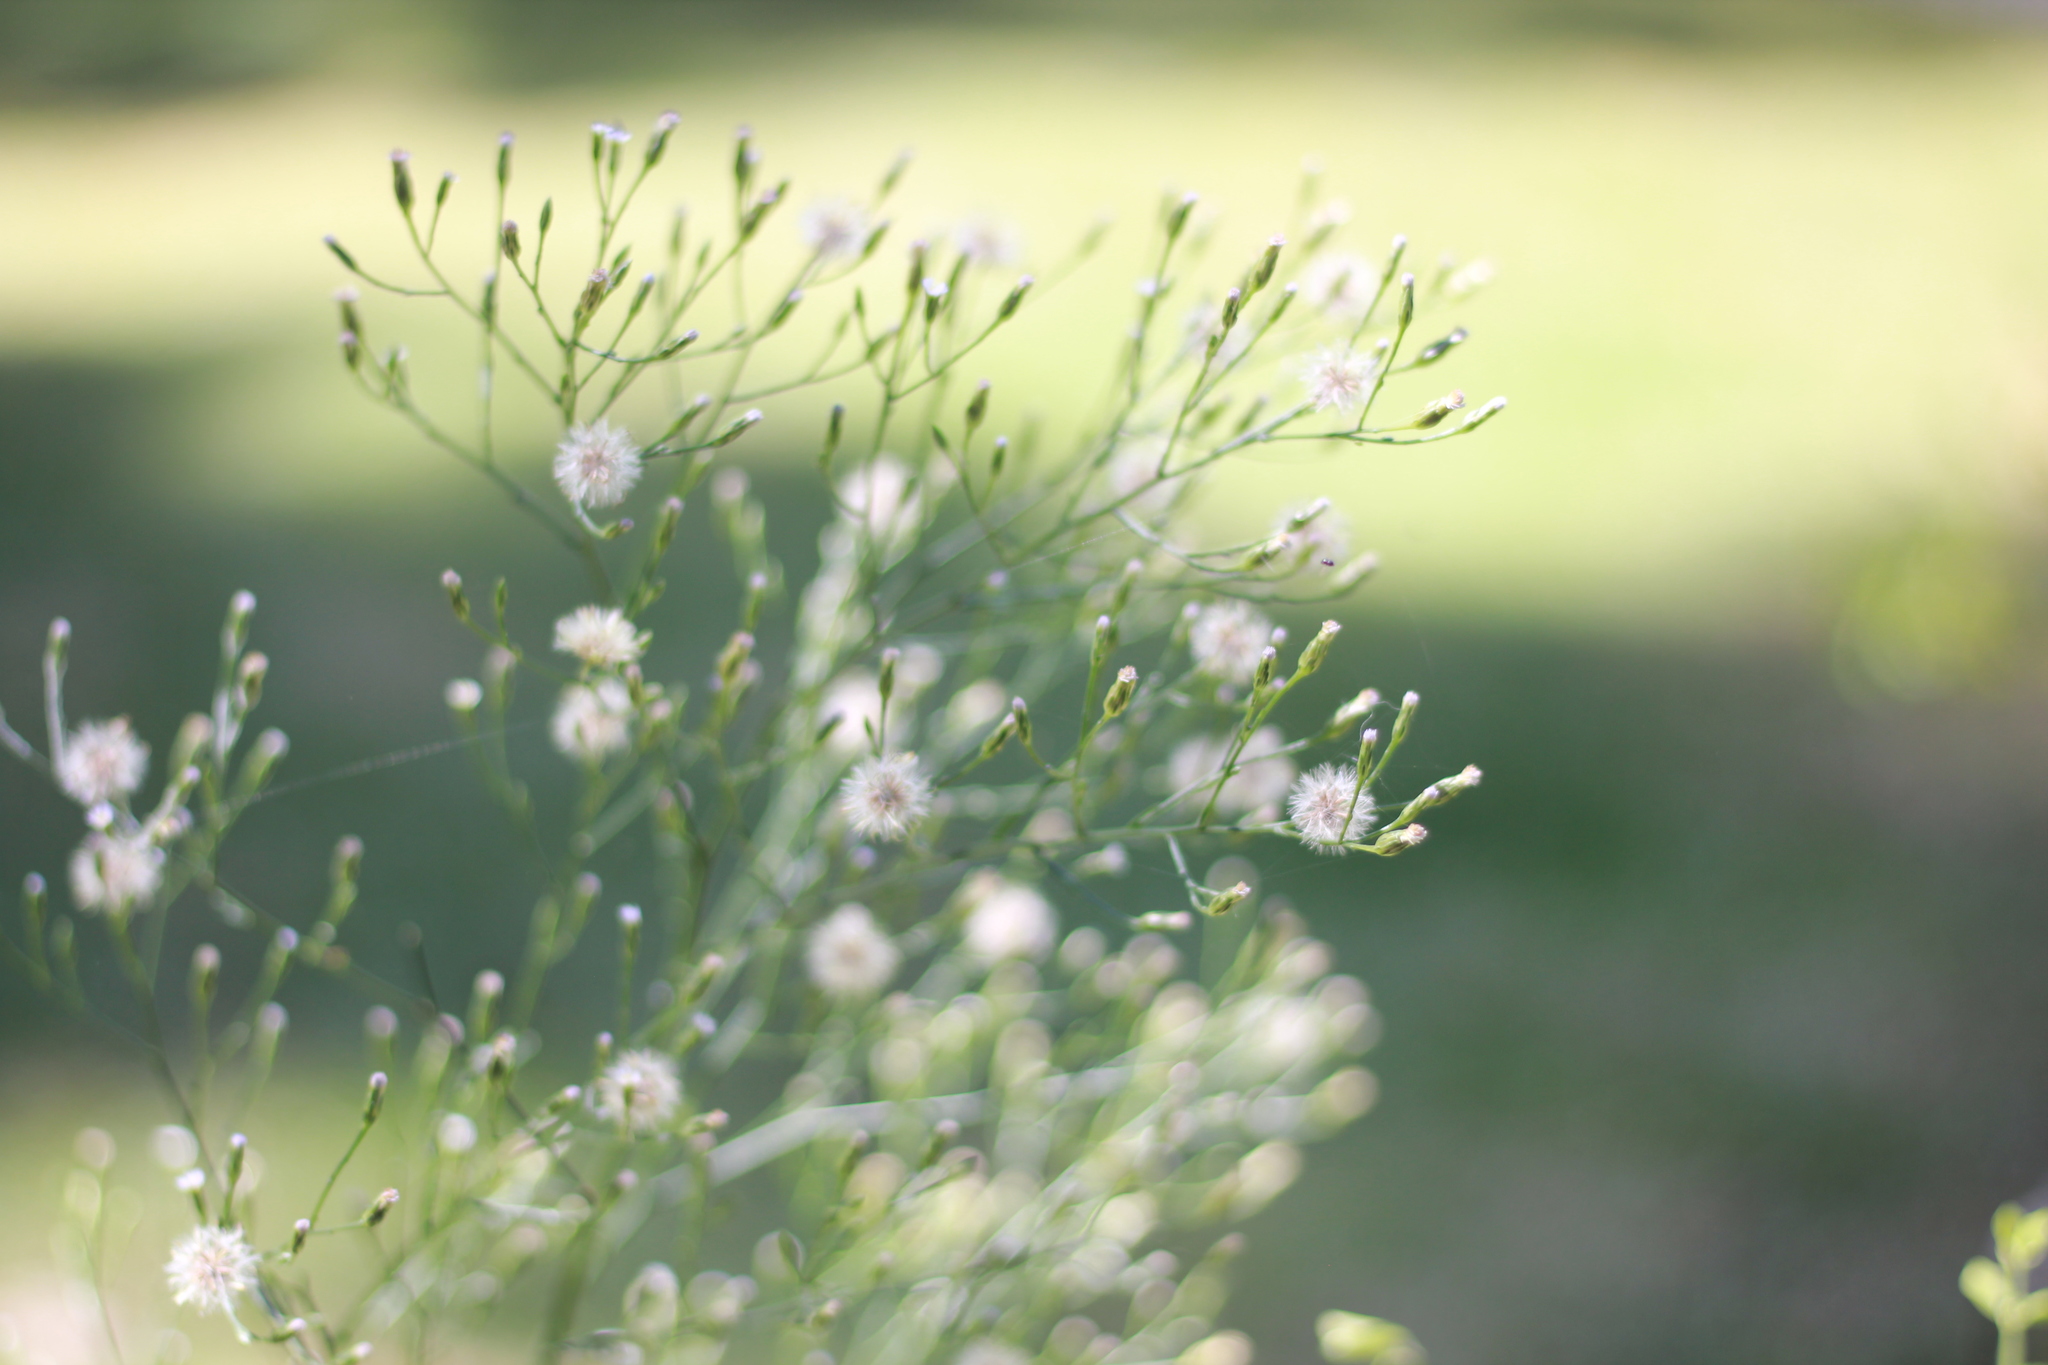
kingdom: Plantae
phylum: Tracheophyta
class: Magnoliopsida
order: Asterales
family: Asteraceae
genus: Symphyotrichum
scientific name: Symphyotrichum squamatum
